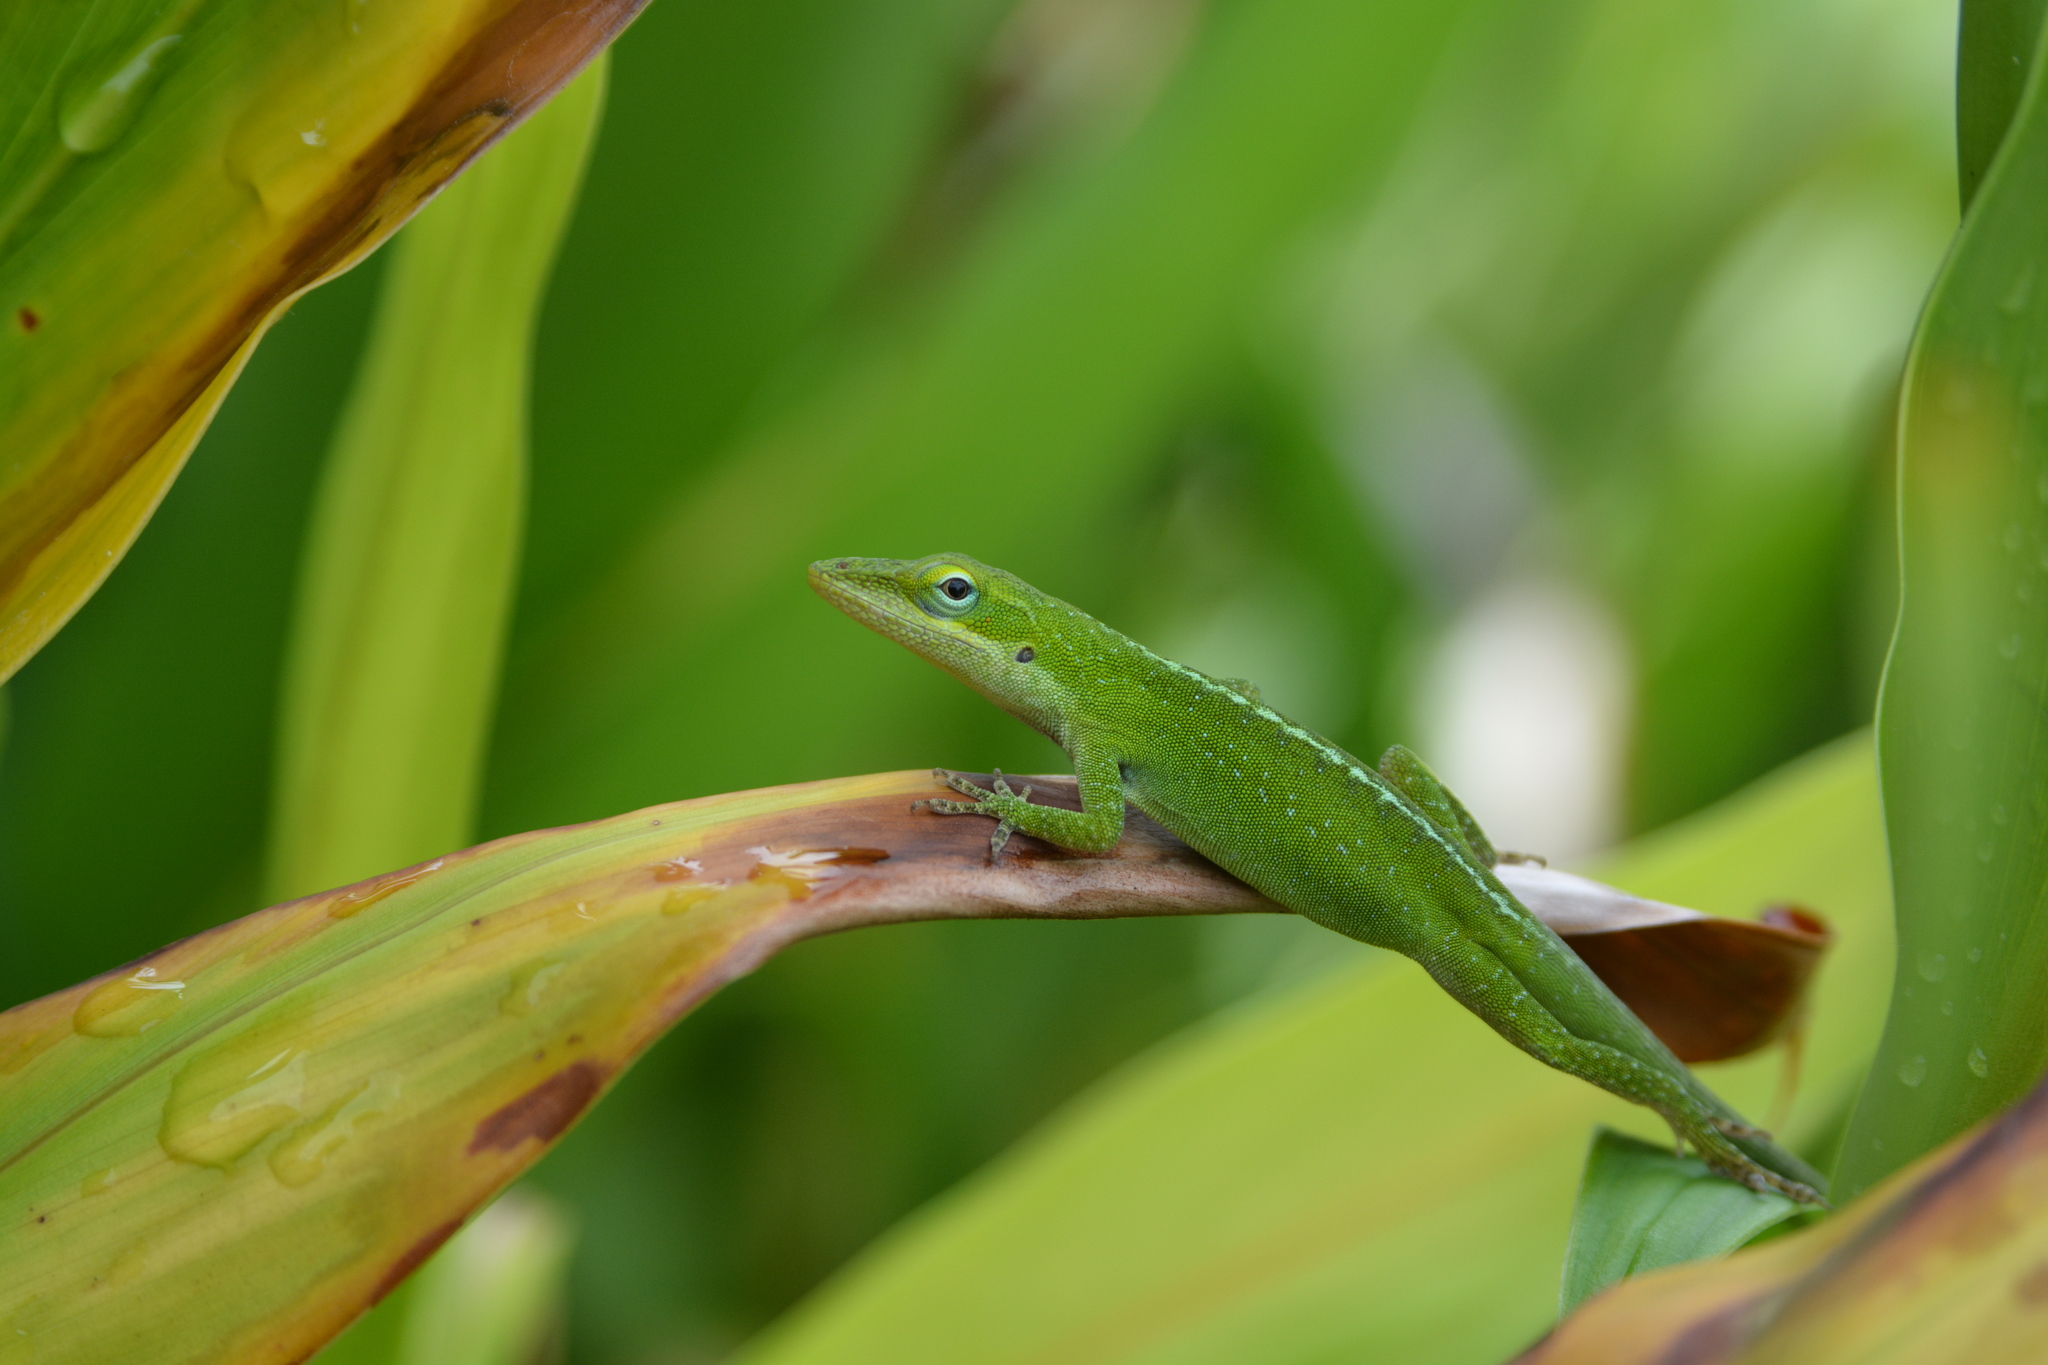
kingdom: Animalia
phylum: Chordata
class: Squamata
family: Dactyloidae
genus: Anolis
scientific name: Anolis carolinensis
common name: Green anole
